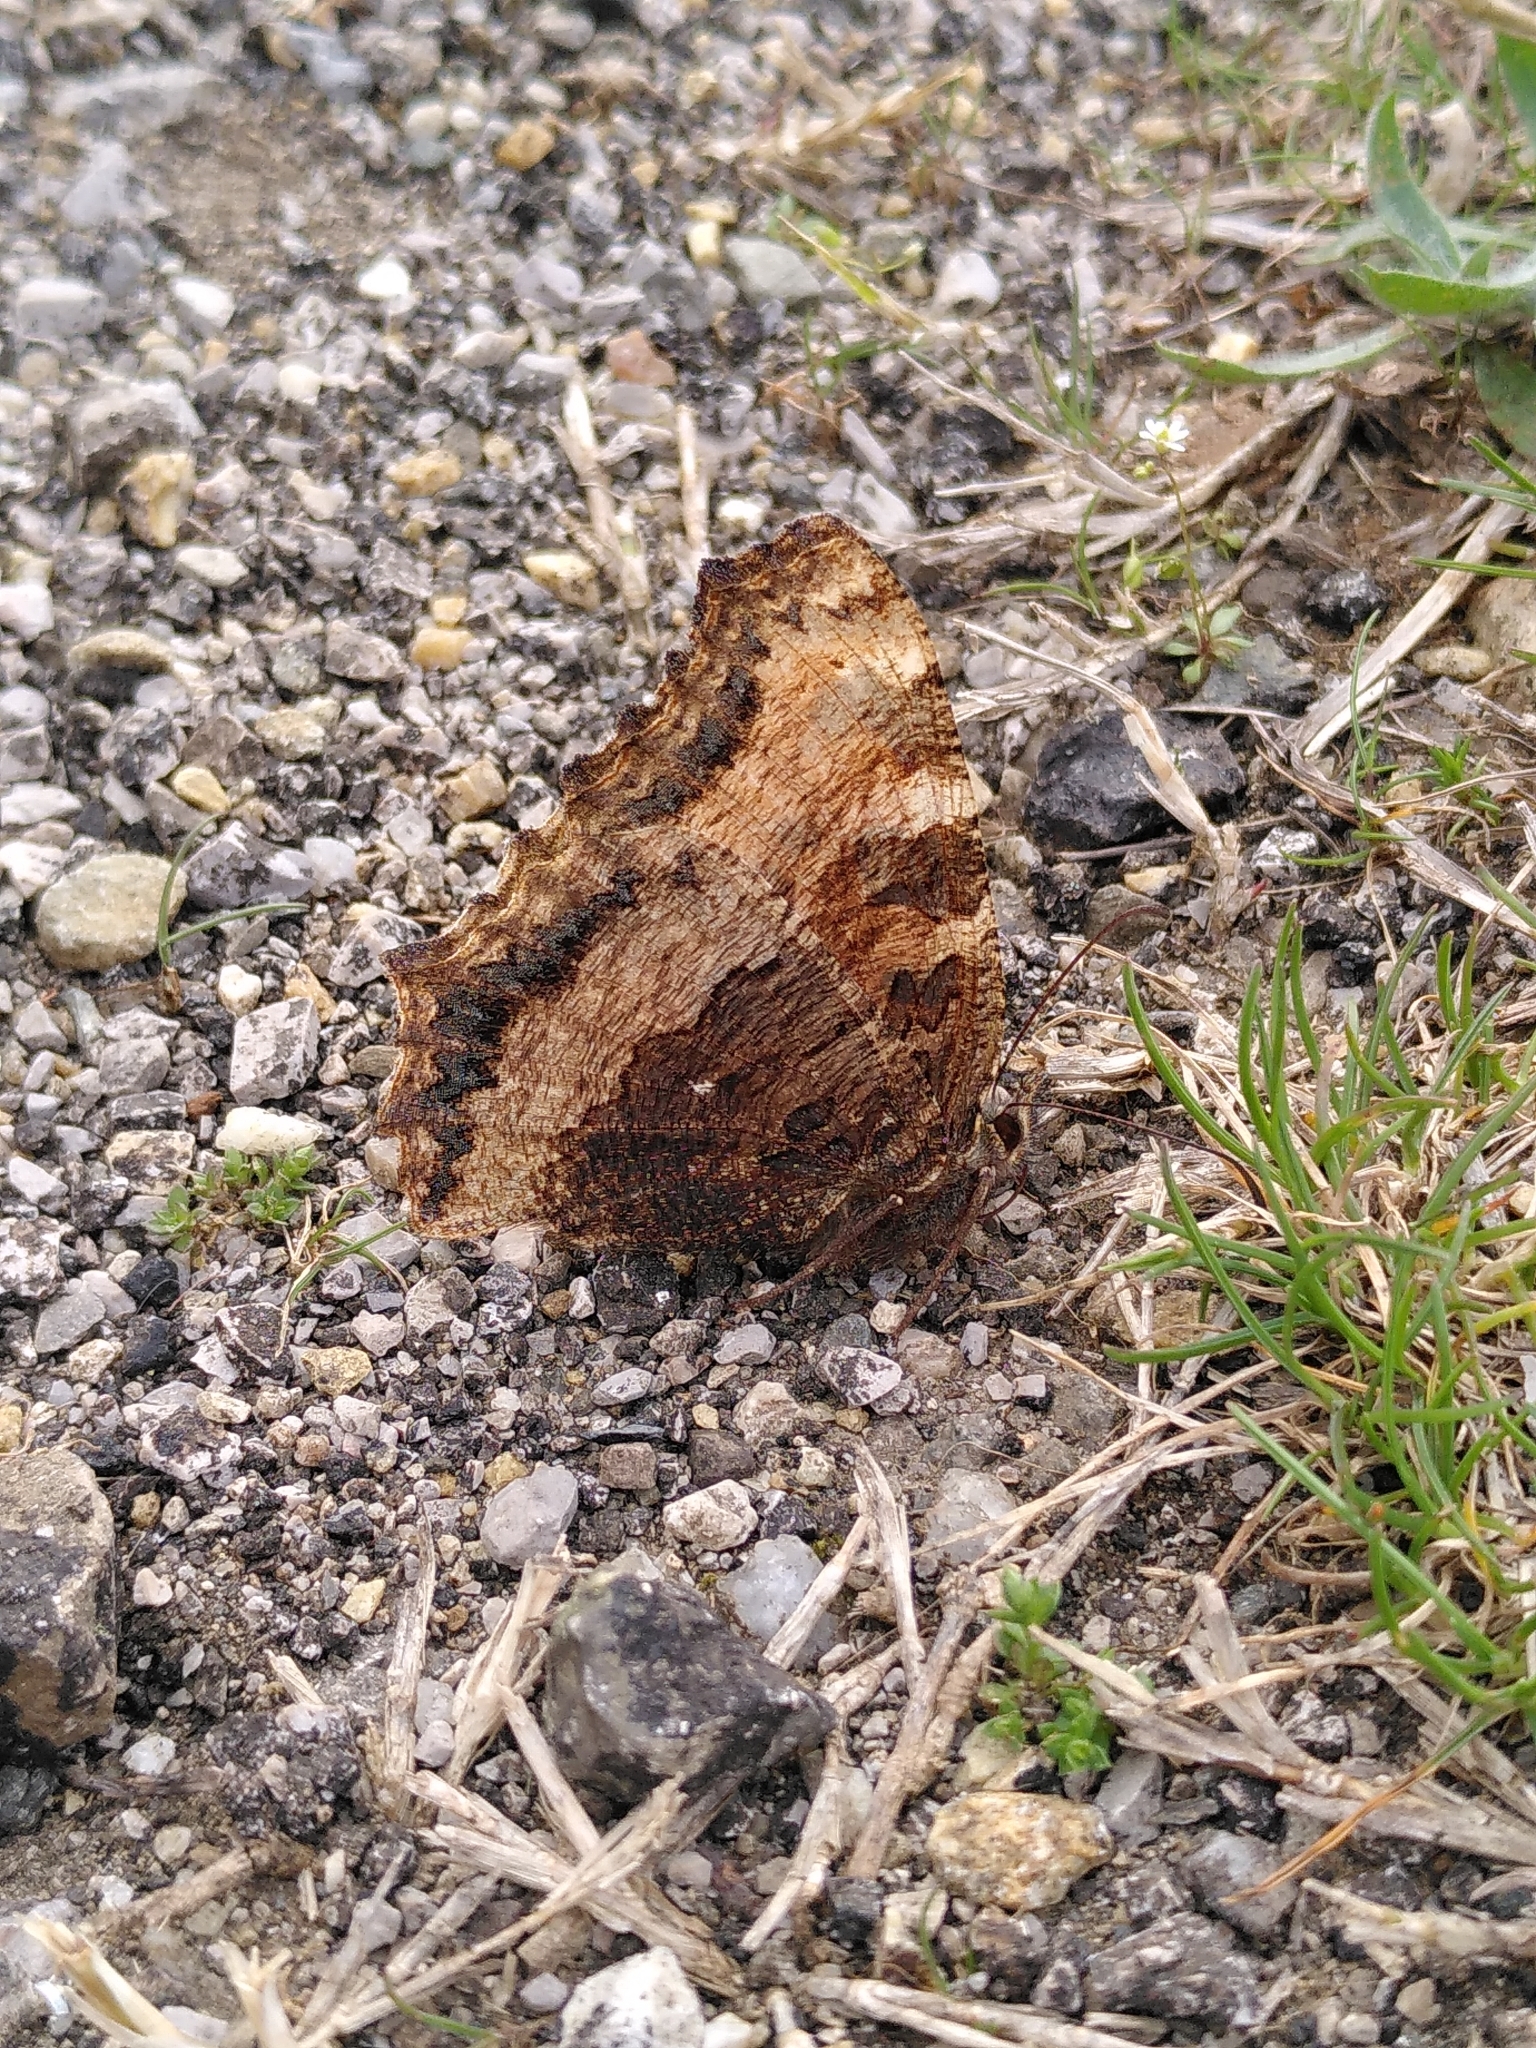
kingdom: Animalia
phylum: Arthropoda
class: Insecta
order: Lepidoptera
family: Nymphalidae
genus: Nymphalis
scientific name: Nymphalis polychloros
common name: Large tortoiseshell
